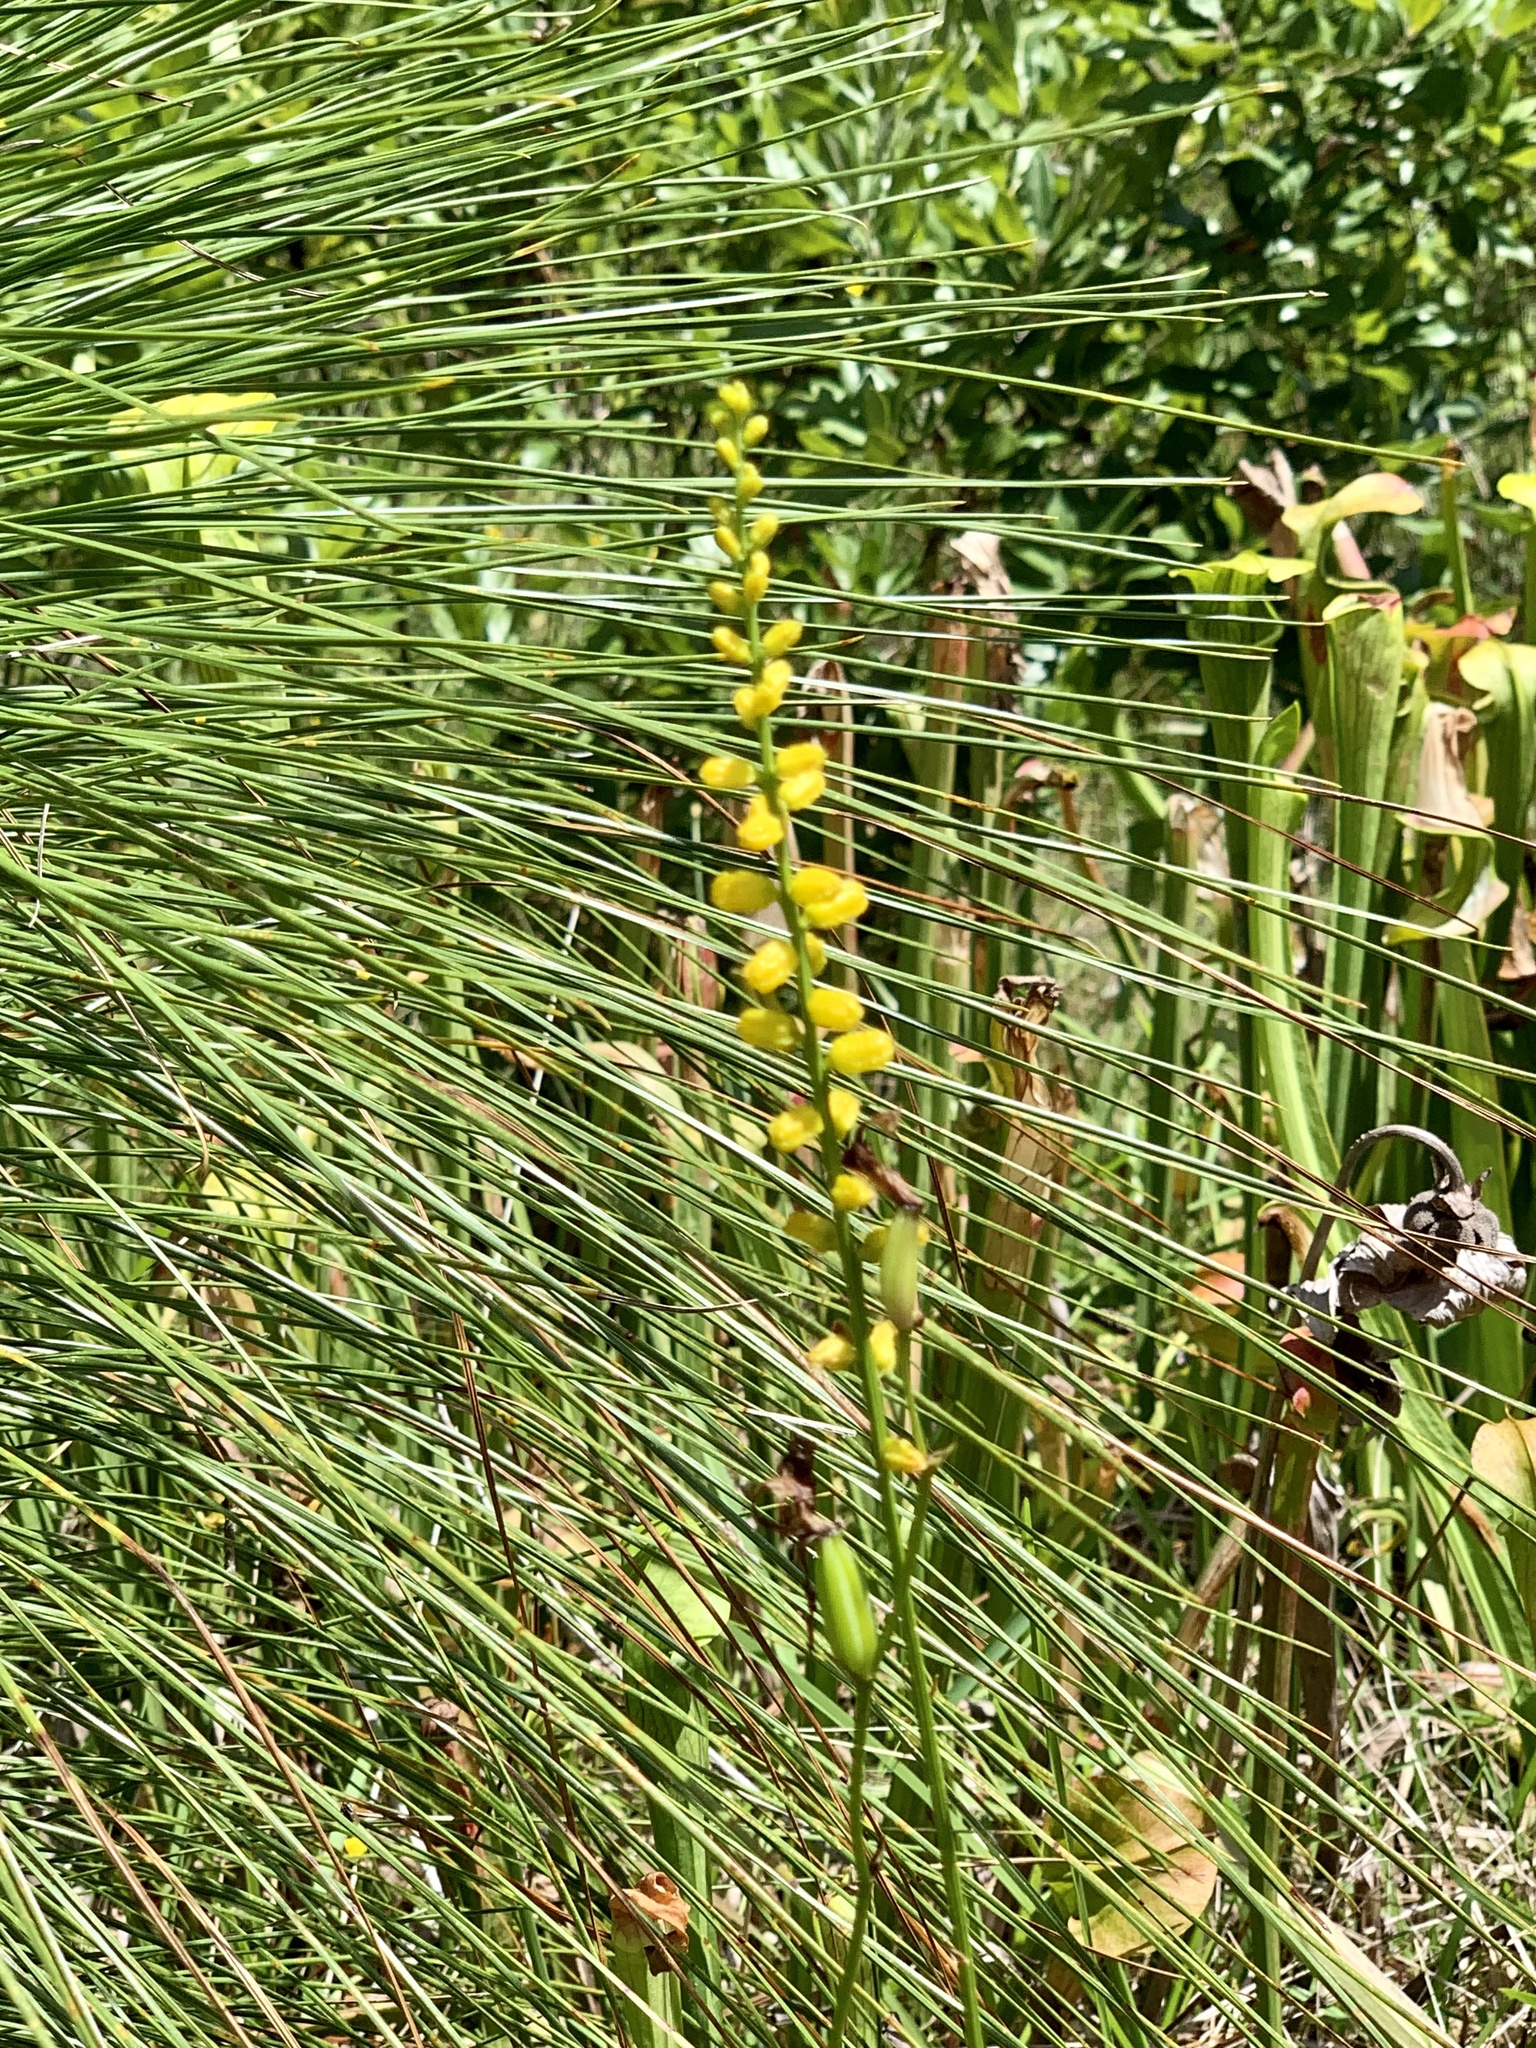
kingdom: Plantae
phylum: Tracheophyta
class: Liliopsida
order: Dioscoreales
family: Nartheciaceae
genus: Aletris
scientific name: Aletris aurea
